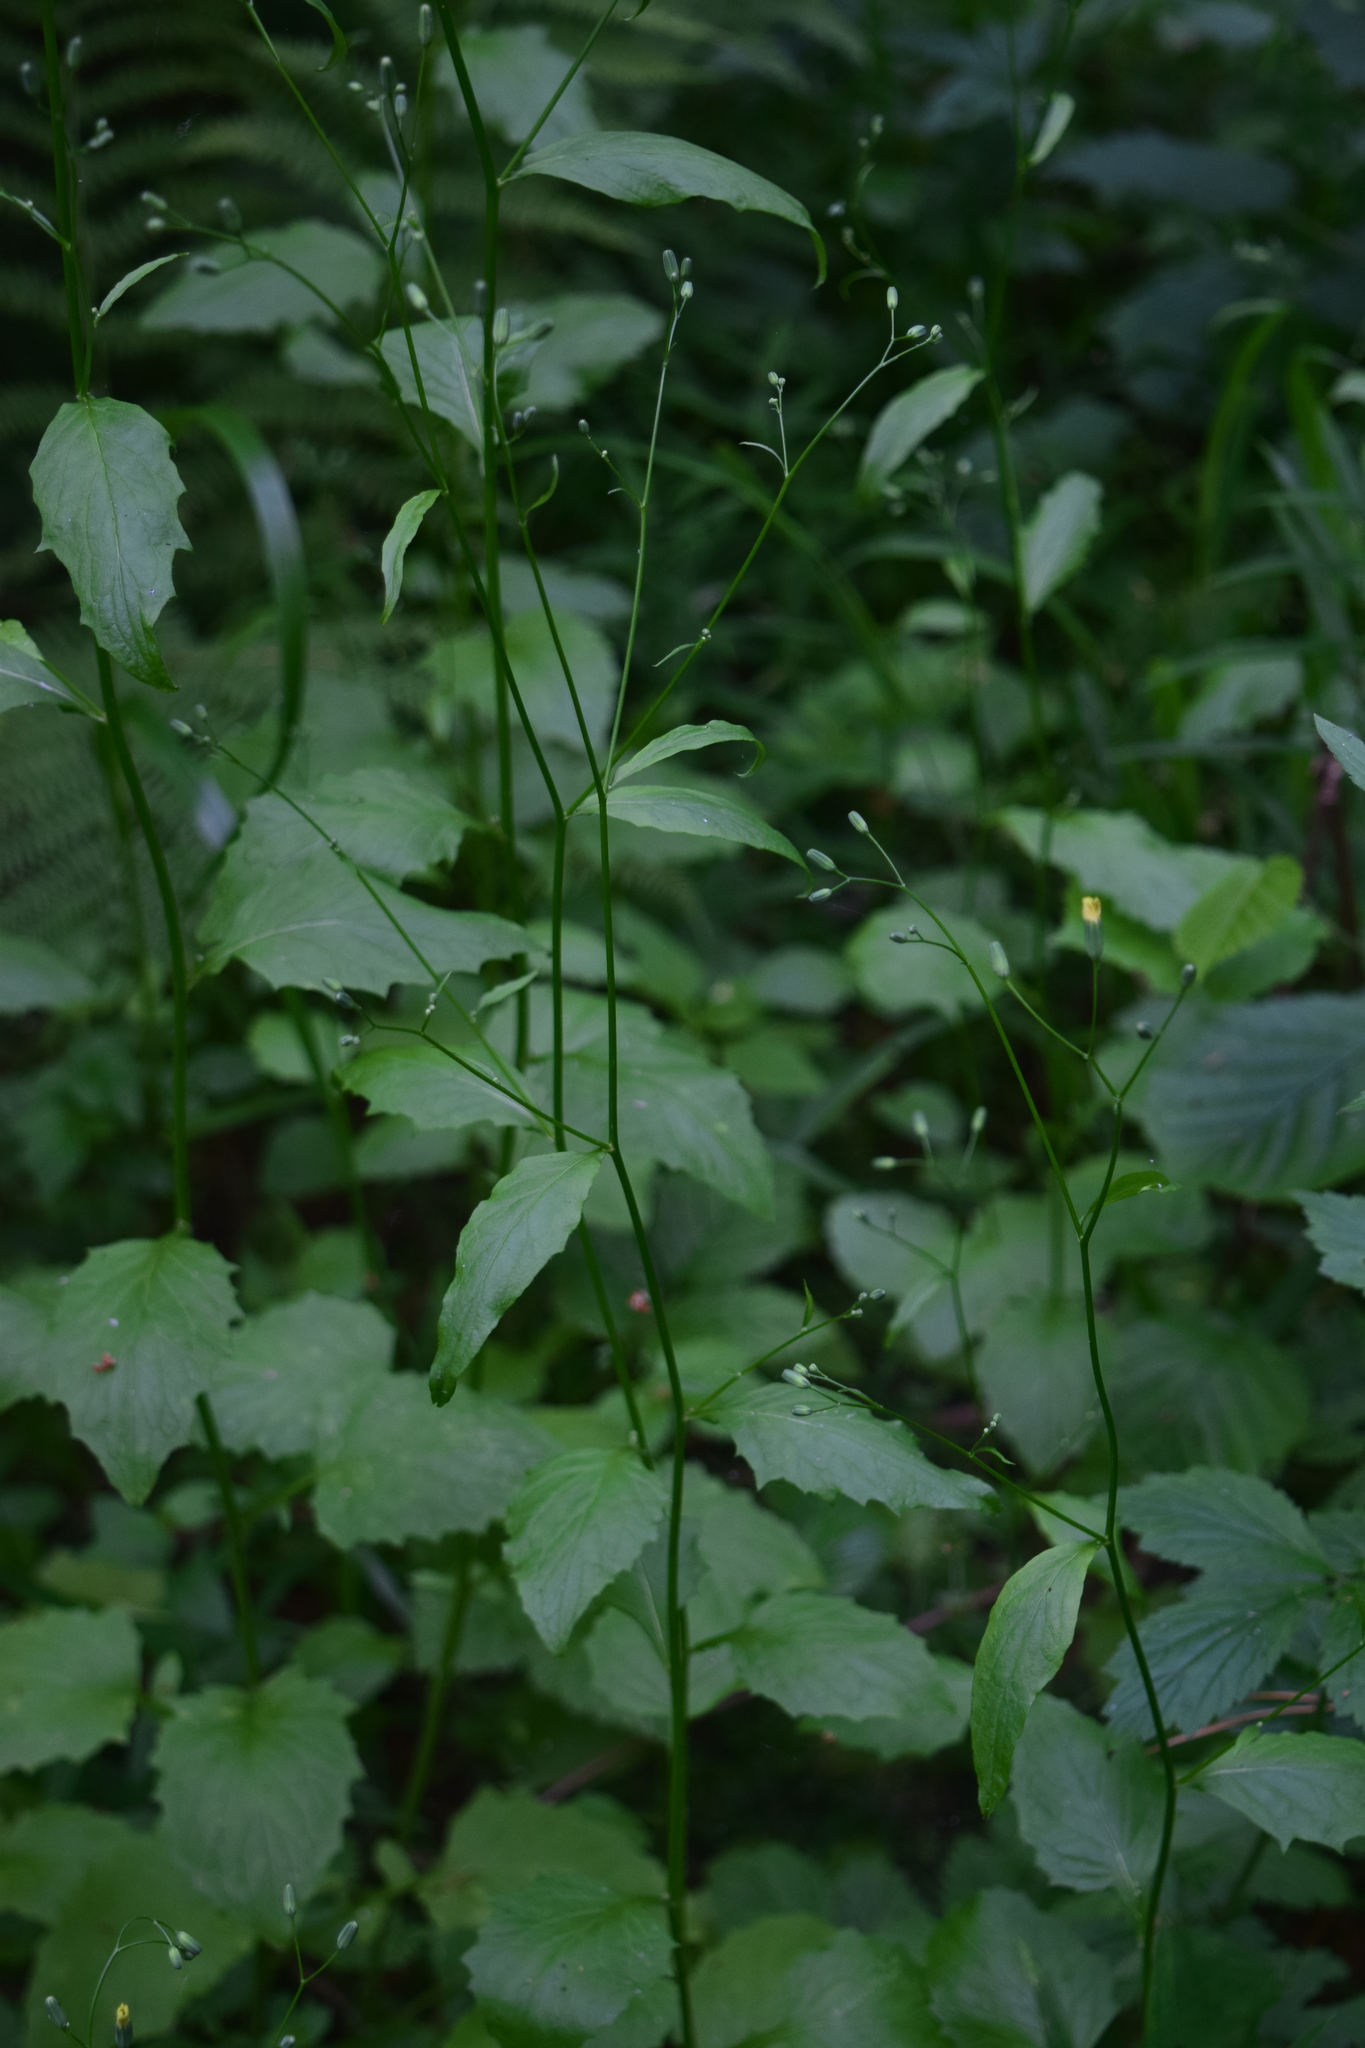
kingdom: Plantae
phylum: Tracheophyta
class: Magnoliopsida
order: Asterales
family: Asteraceae
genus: Lapsana
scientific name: Lapsana communis
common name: Nipplewort
